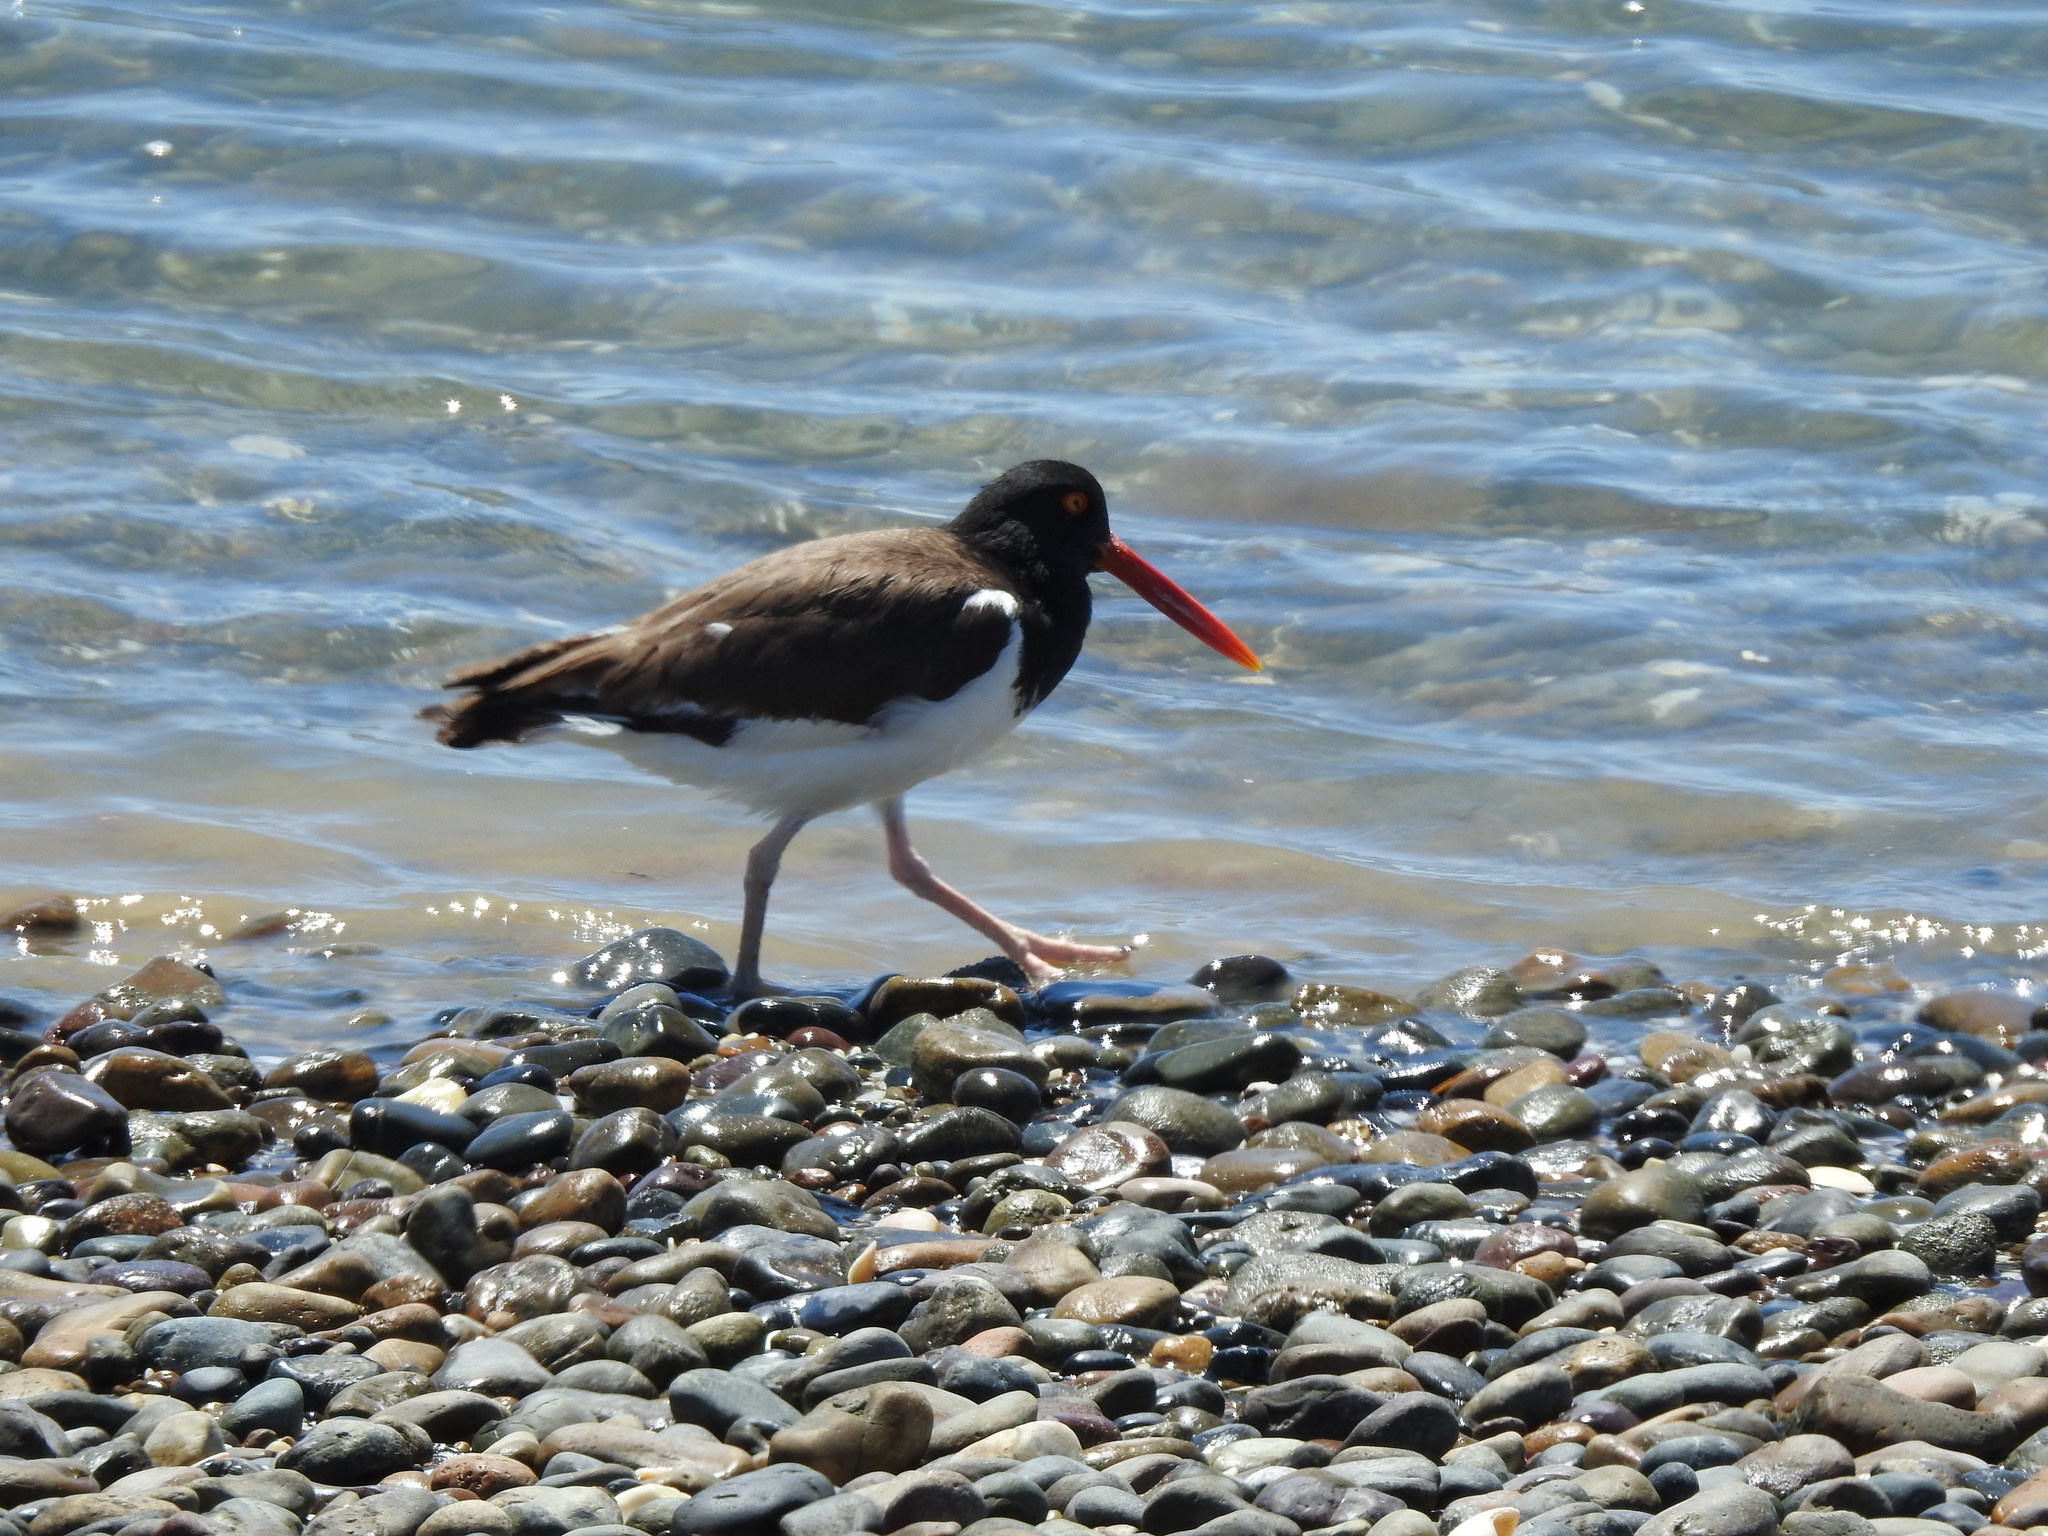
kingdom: Animalia
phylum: Chordata
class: Aves
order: Charadriiformes
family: Haematopodidae
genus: Haematopus
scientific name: Haematopus palliatus
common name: American oystercatcher
